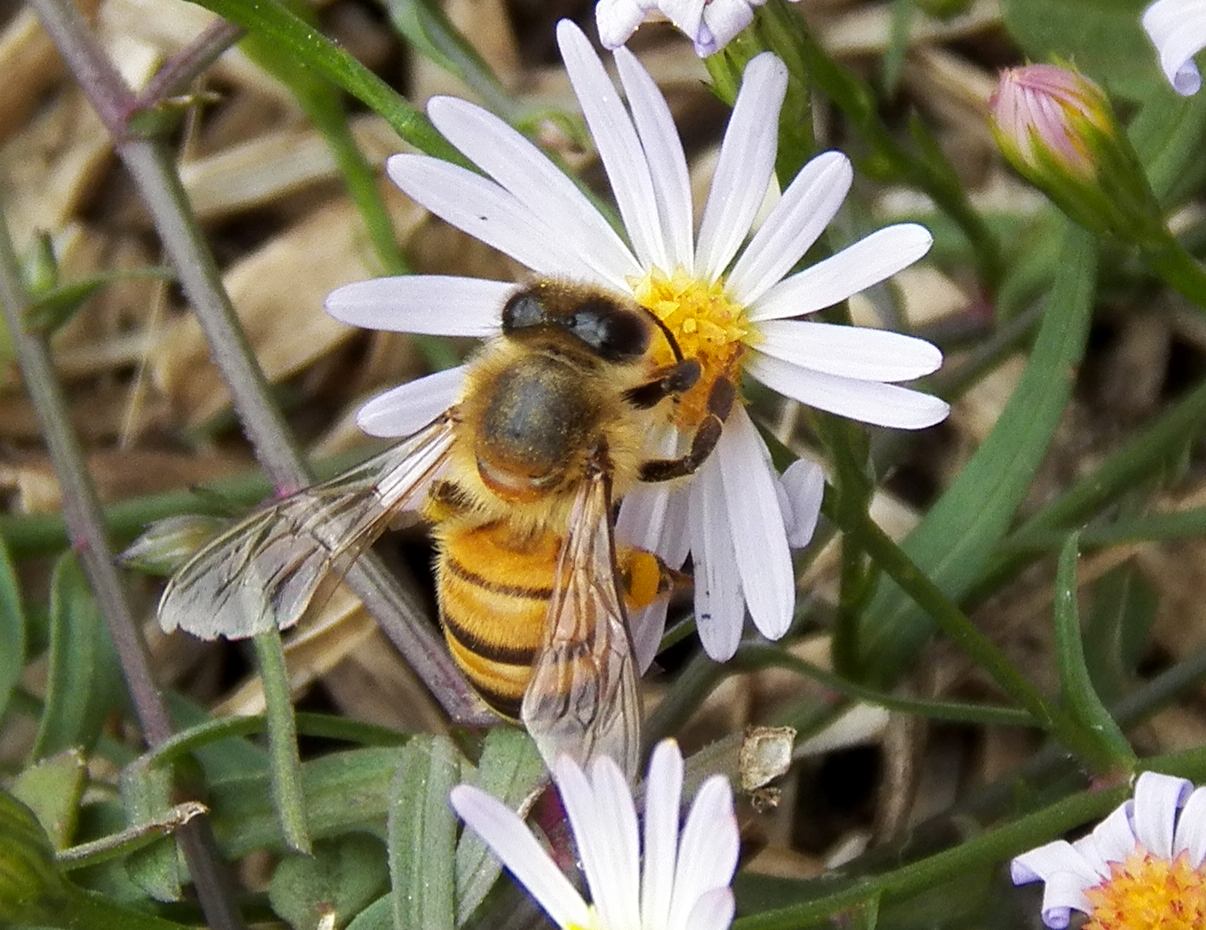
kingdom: Animalia
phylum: Arthropoda
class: Insecta
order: Hymenoptera
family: Apidae
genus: Apis
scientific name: Apis mellifera
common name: Honey bee
